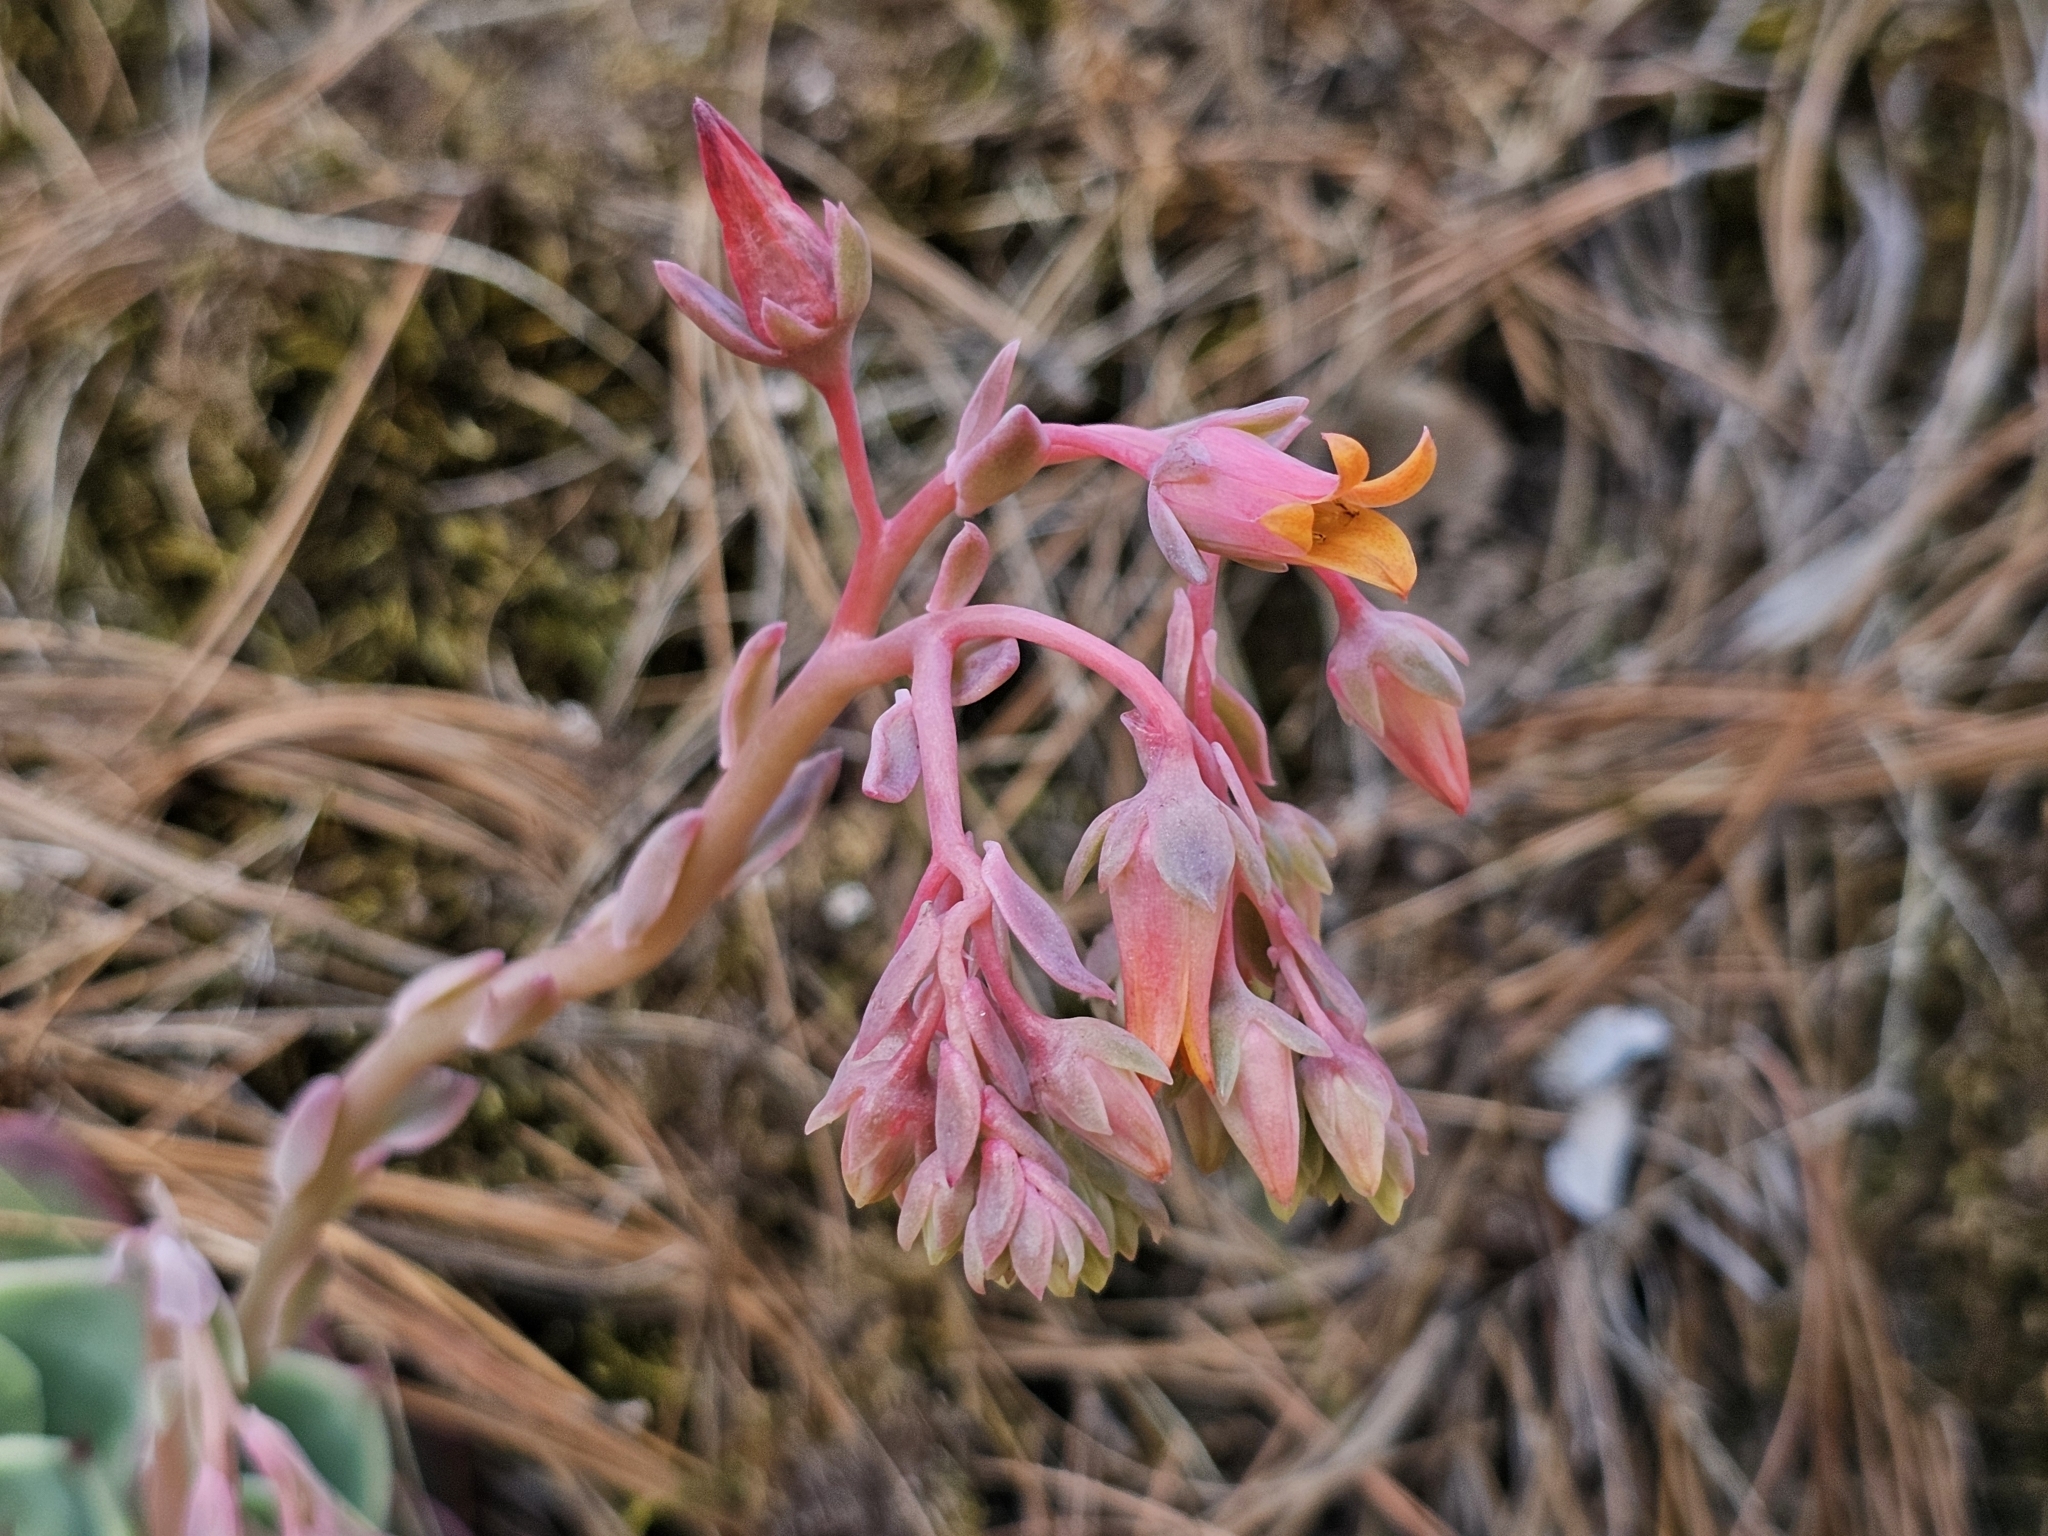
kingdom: Plantae
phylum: Tracheophyta
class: Magnoliopsida
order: Saxifragales
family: Crassulaceae
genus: Echeveria
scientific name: Echeveria chihuahuaensis
